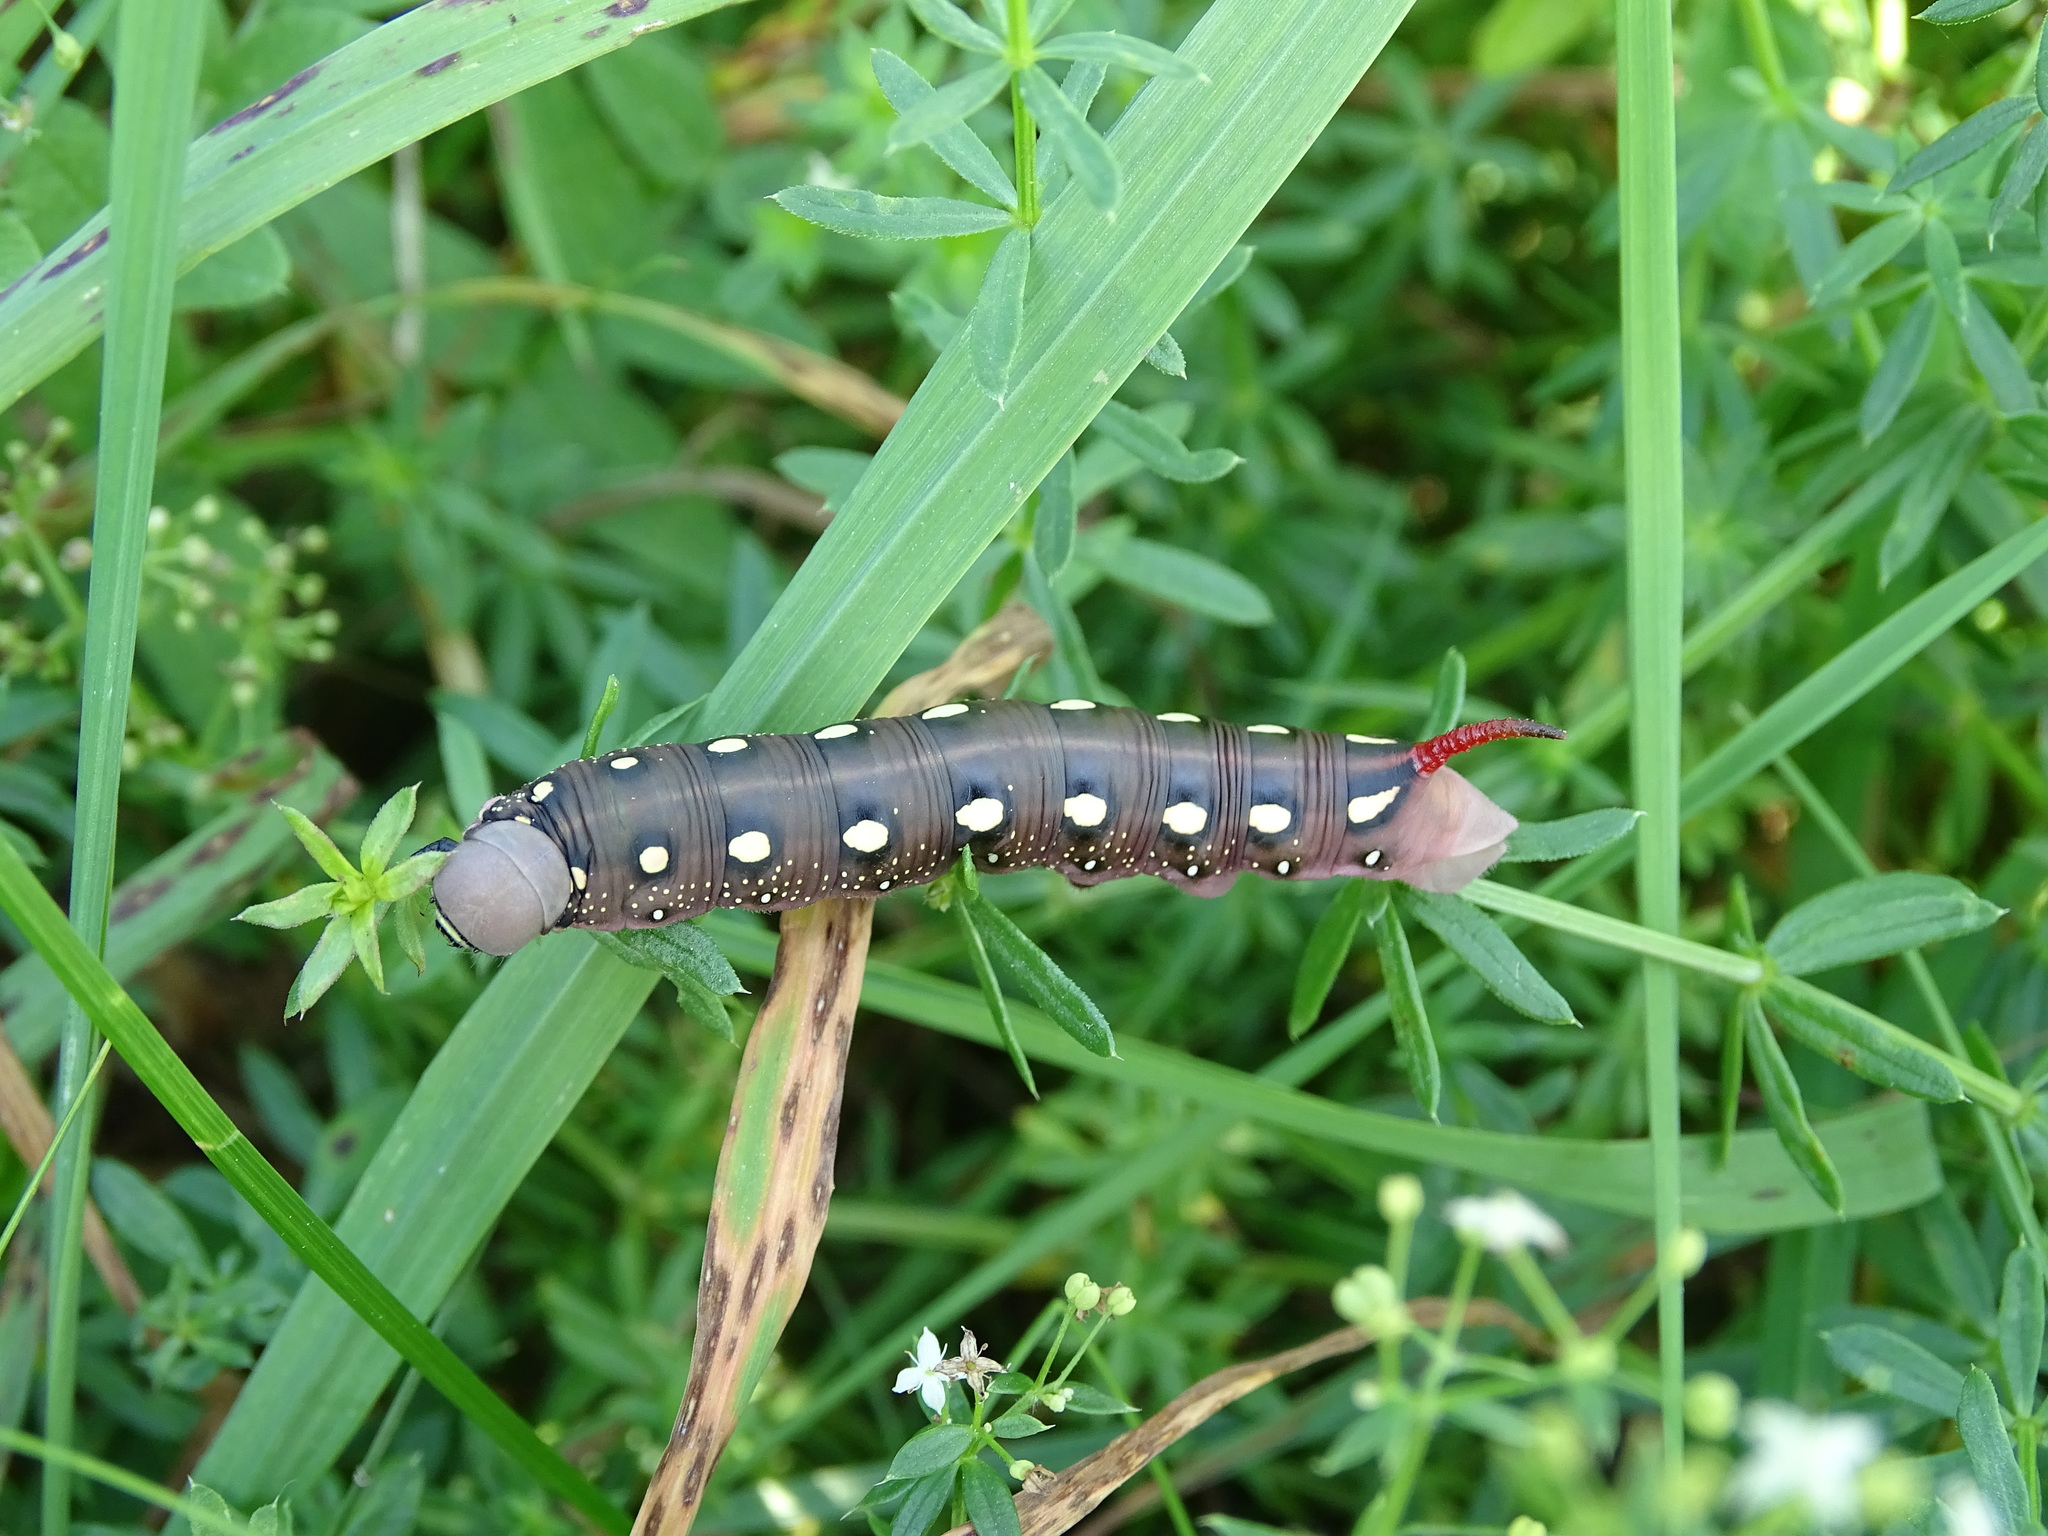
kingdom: Animalia
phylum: Arthropoda
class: Insecta
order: Lepidoptera
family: Sphingidae
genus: Hyles
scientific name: Hyles gallii
